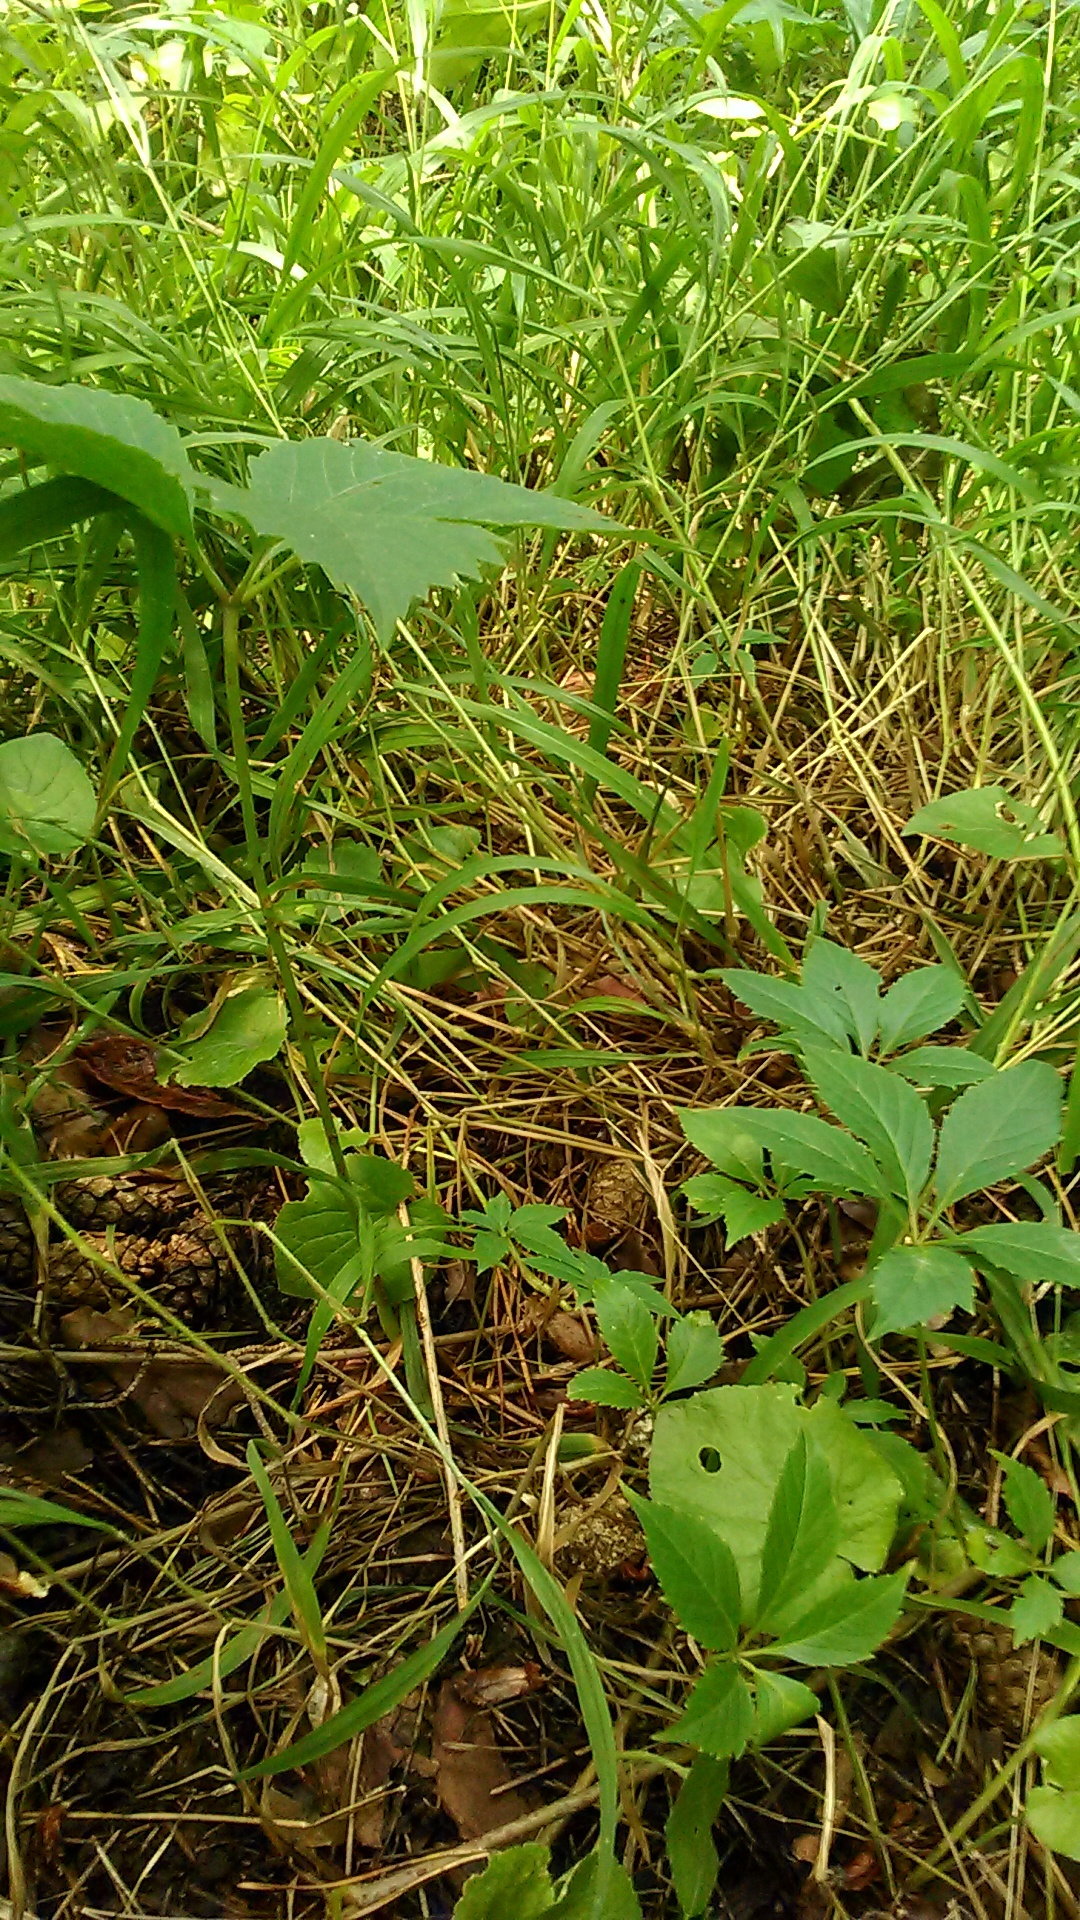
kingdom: Plantae
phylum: Tracheophyta
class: Magnoliopsida
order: Vitales
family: Vitaceae
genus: Parthenocissus
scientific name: Parthenocissus inserta
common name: False virginia-creeper
